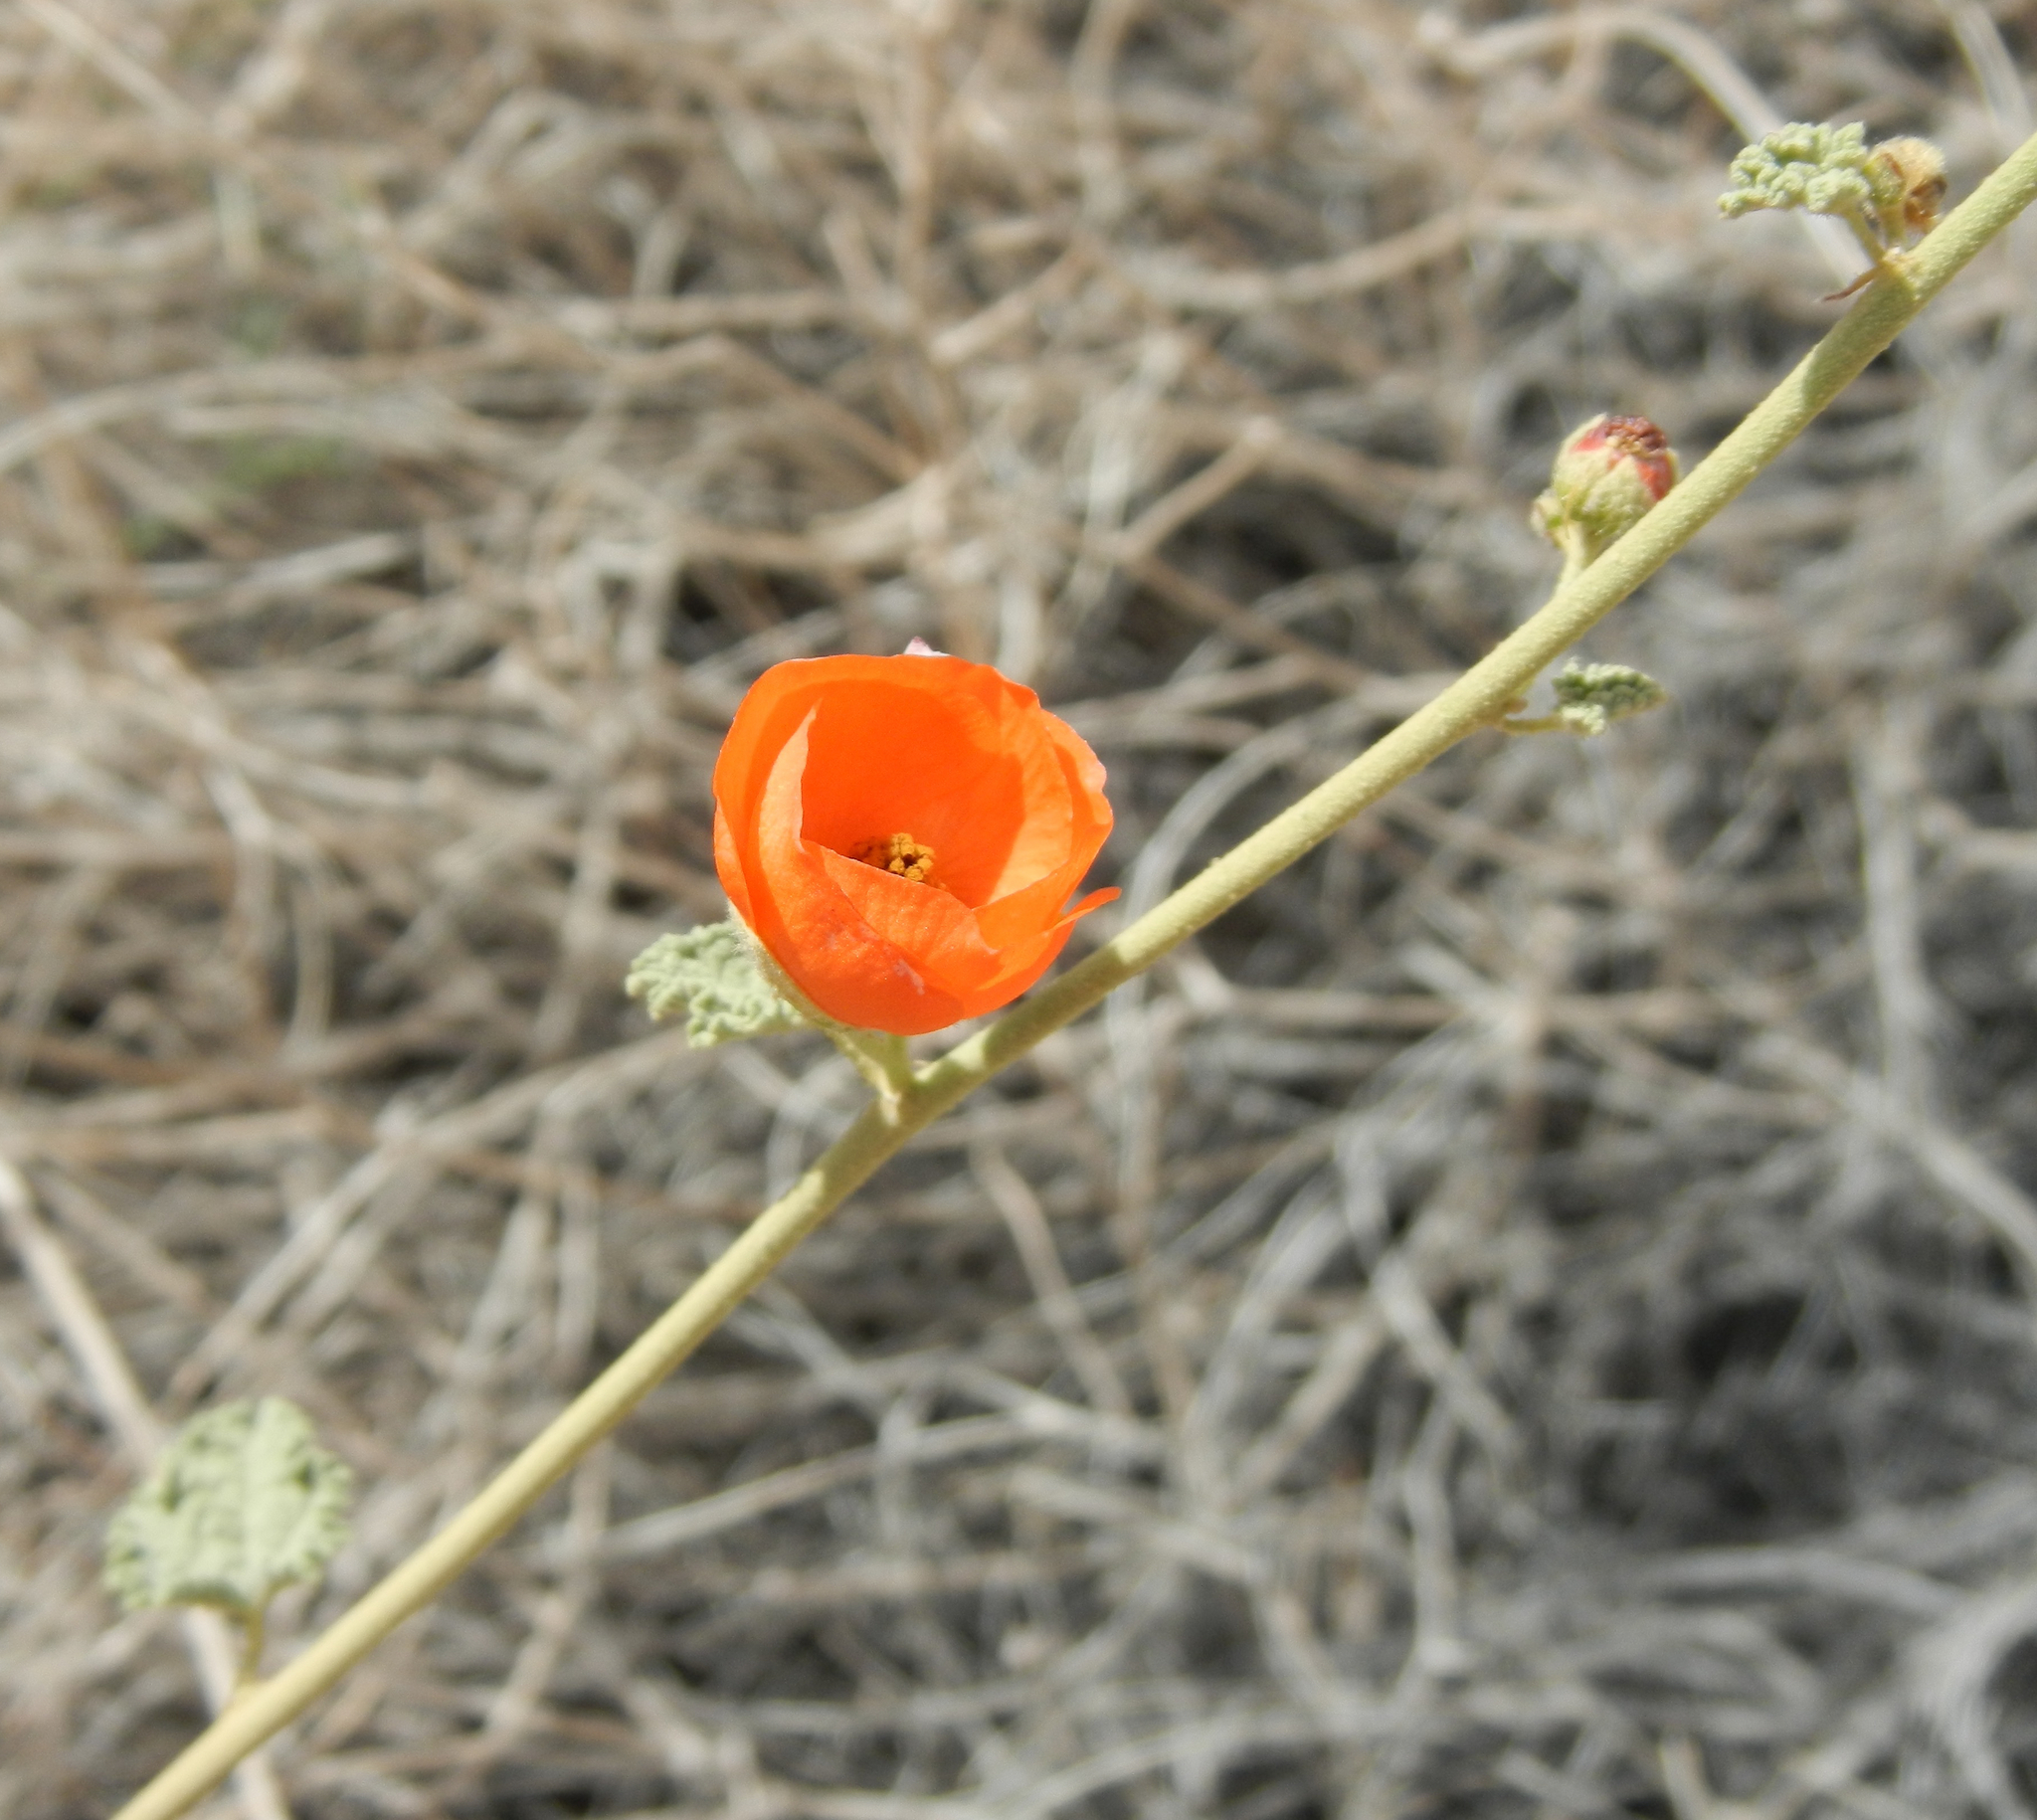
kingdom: Plantae
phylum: Tracheophyta
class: Magnoliopsida
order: Malvales
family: Malvaceae
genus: Sphaeralcea
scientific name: Sphaeralcea ambigua
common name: Apricot globe-mallow
